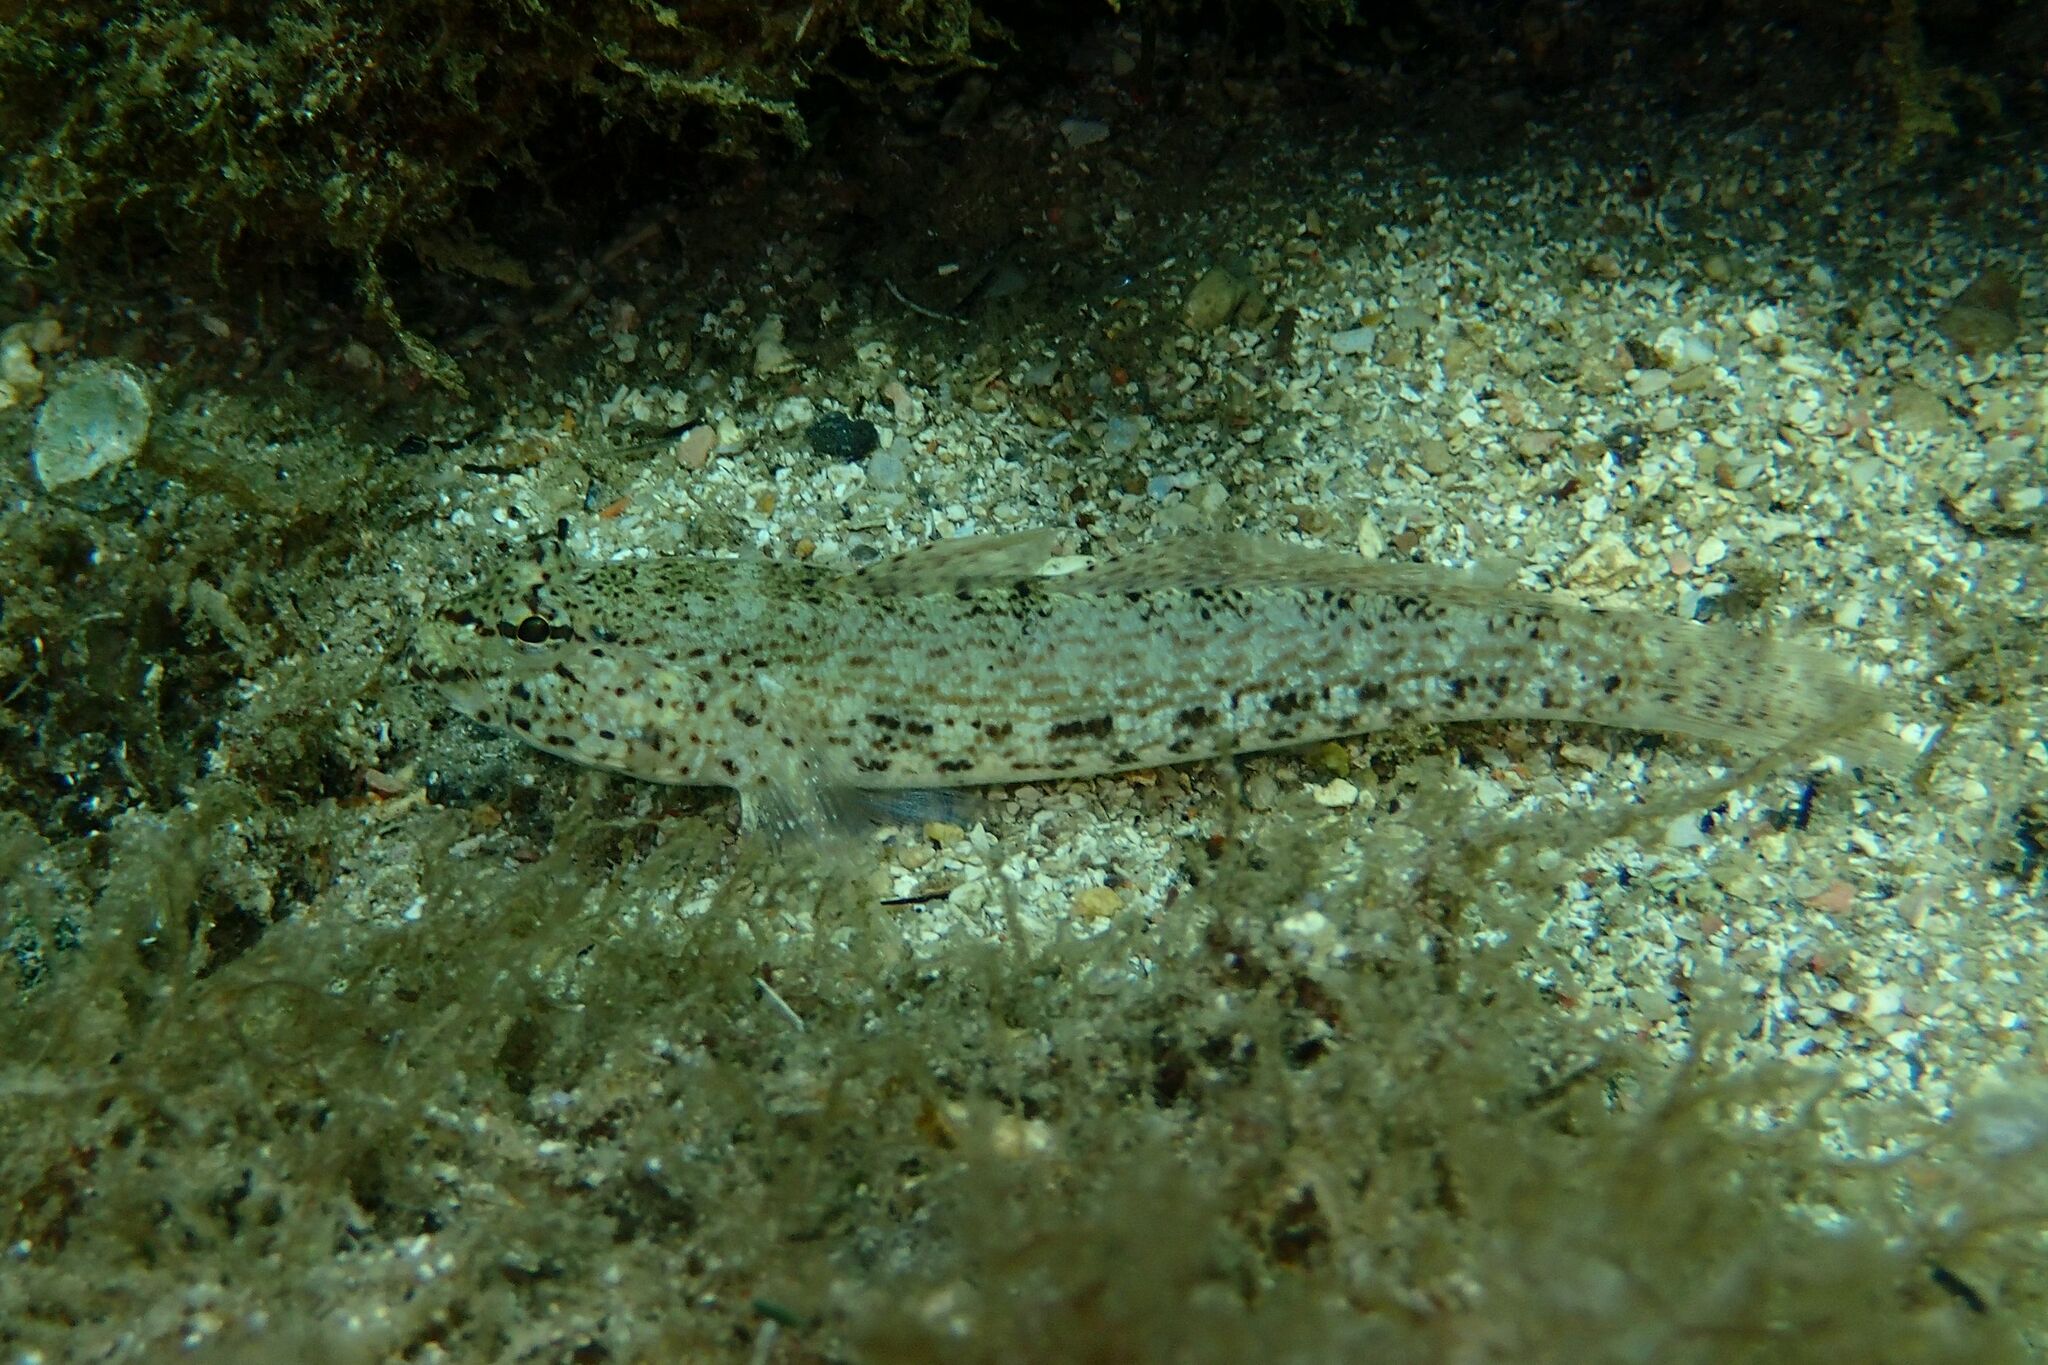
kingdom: Animalia
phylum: Chordata
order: Perciformes
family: Gobiidae
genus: Gobius
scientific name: Gobius incognitus
